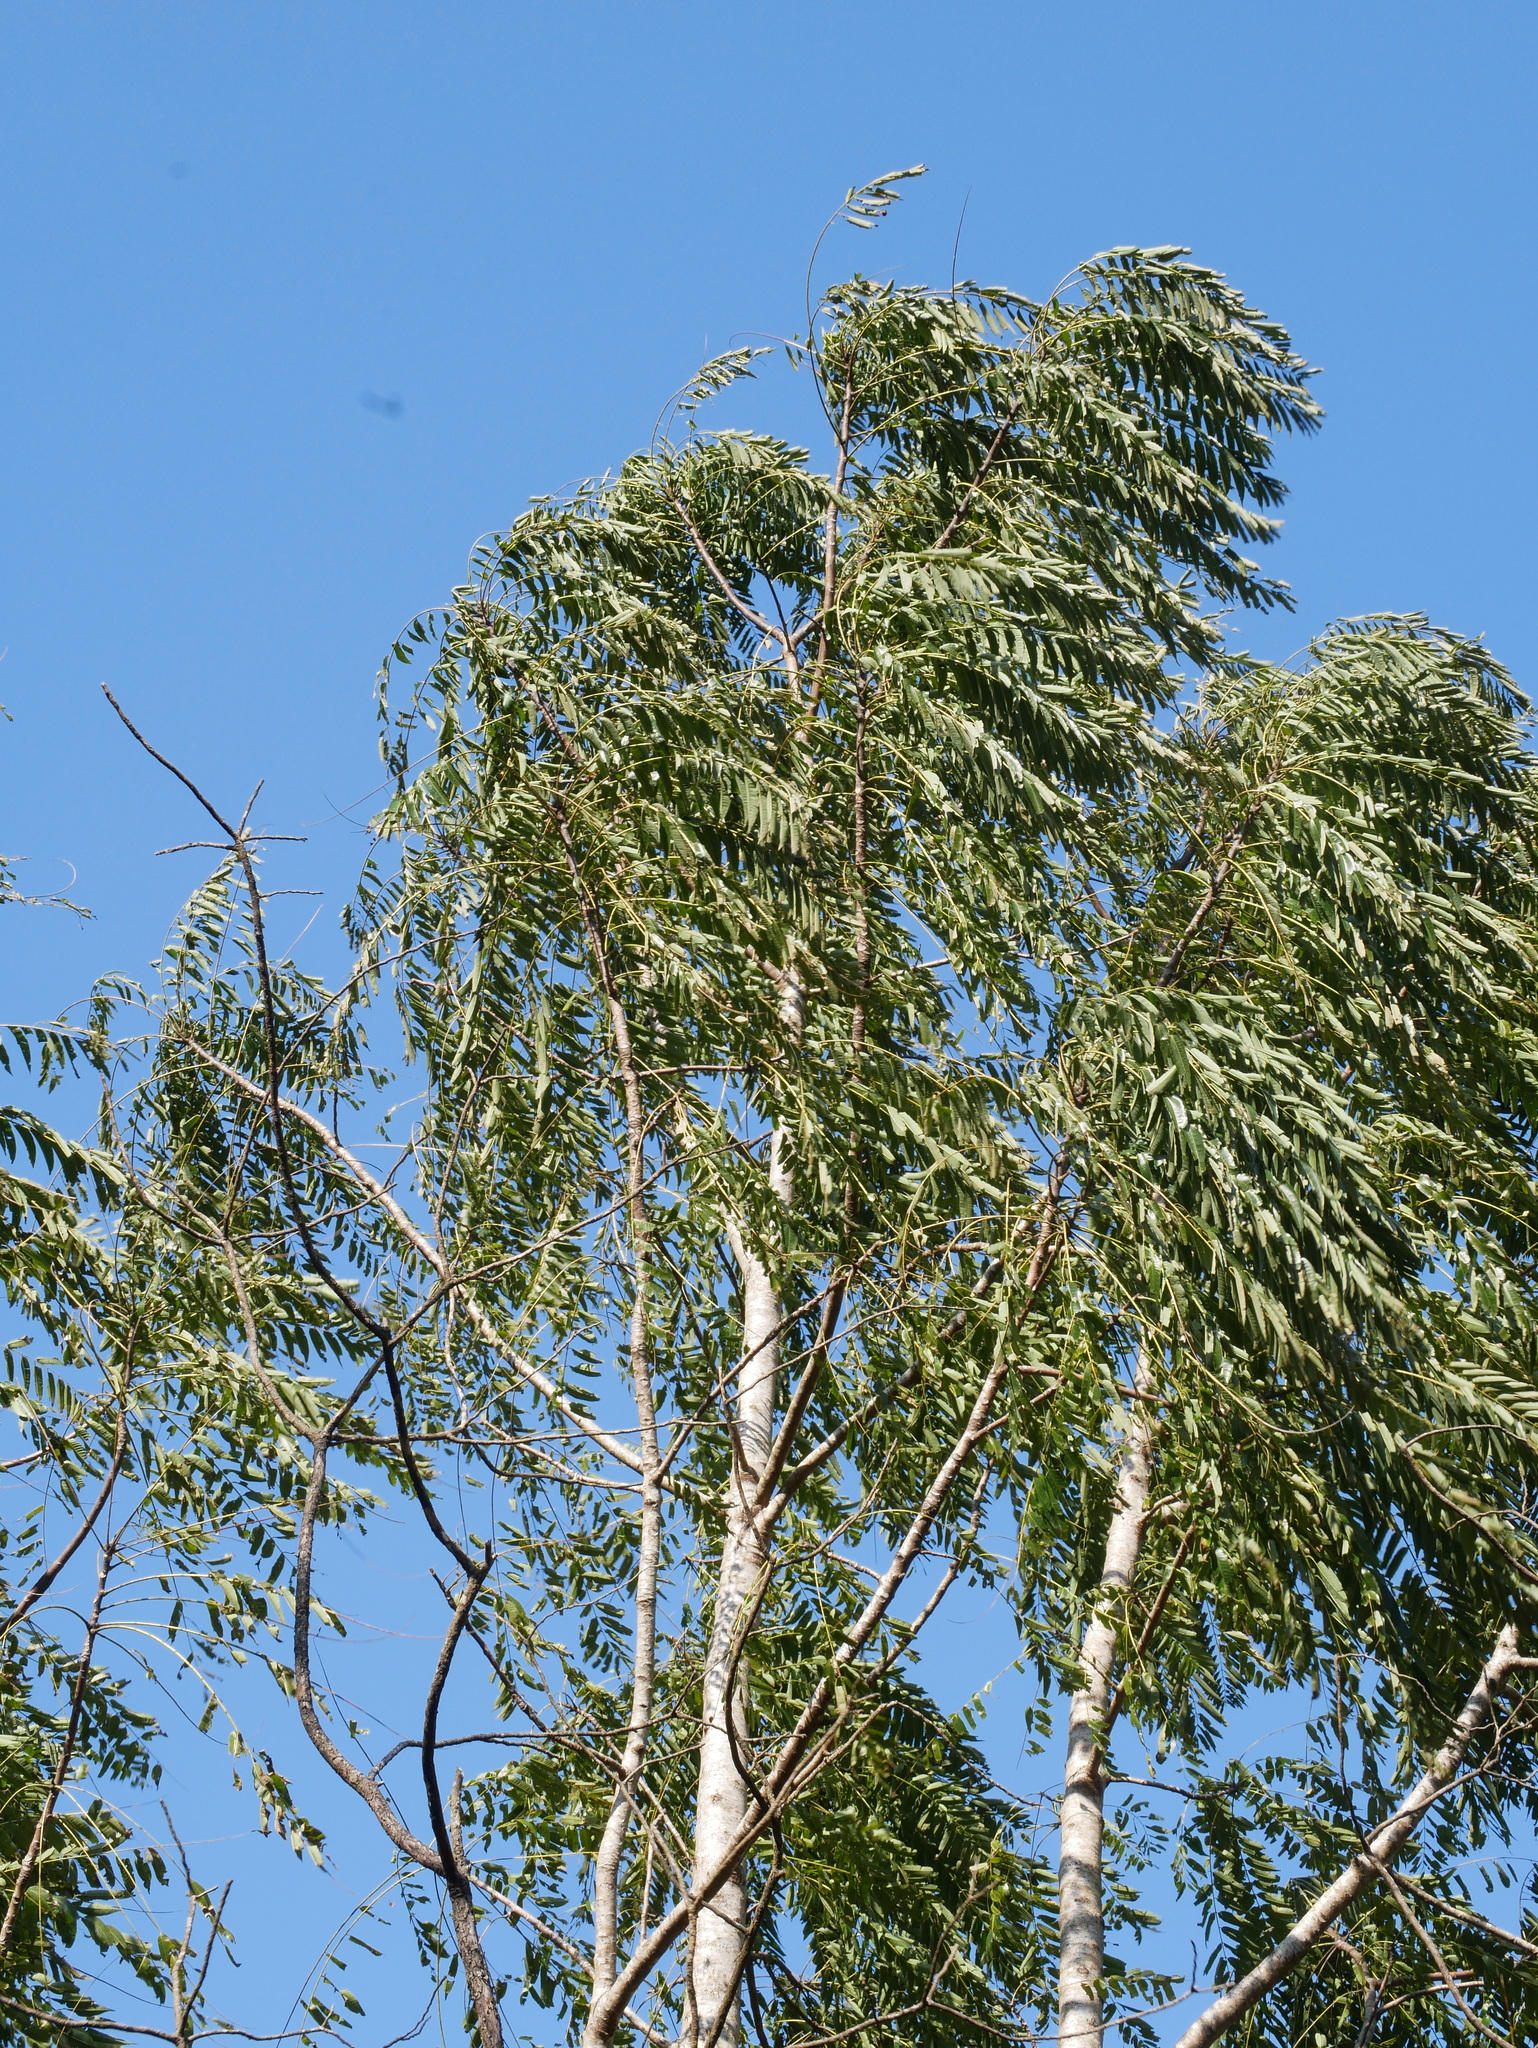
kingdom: Plantae
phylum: Tracheophyta
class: Magnoliopsida
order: Sapindales
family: Meliaceae
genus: Toona
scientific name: Toona sinensis
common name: Red toon
